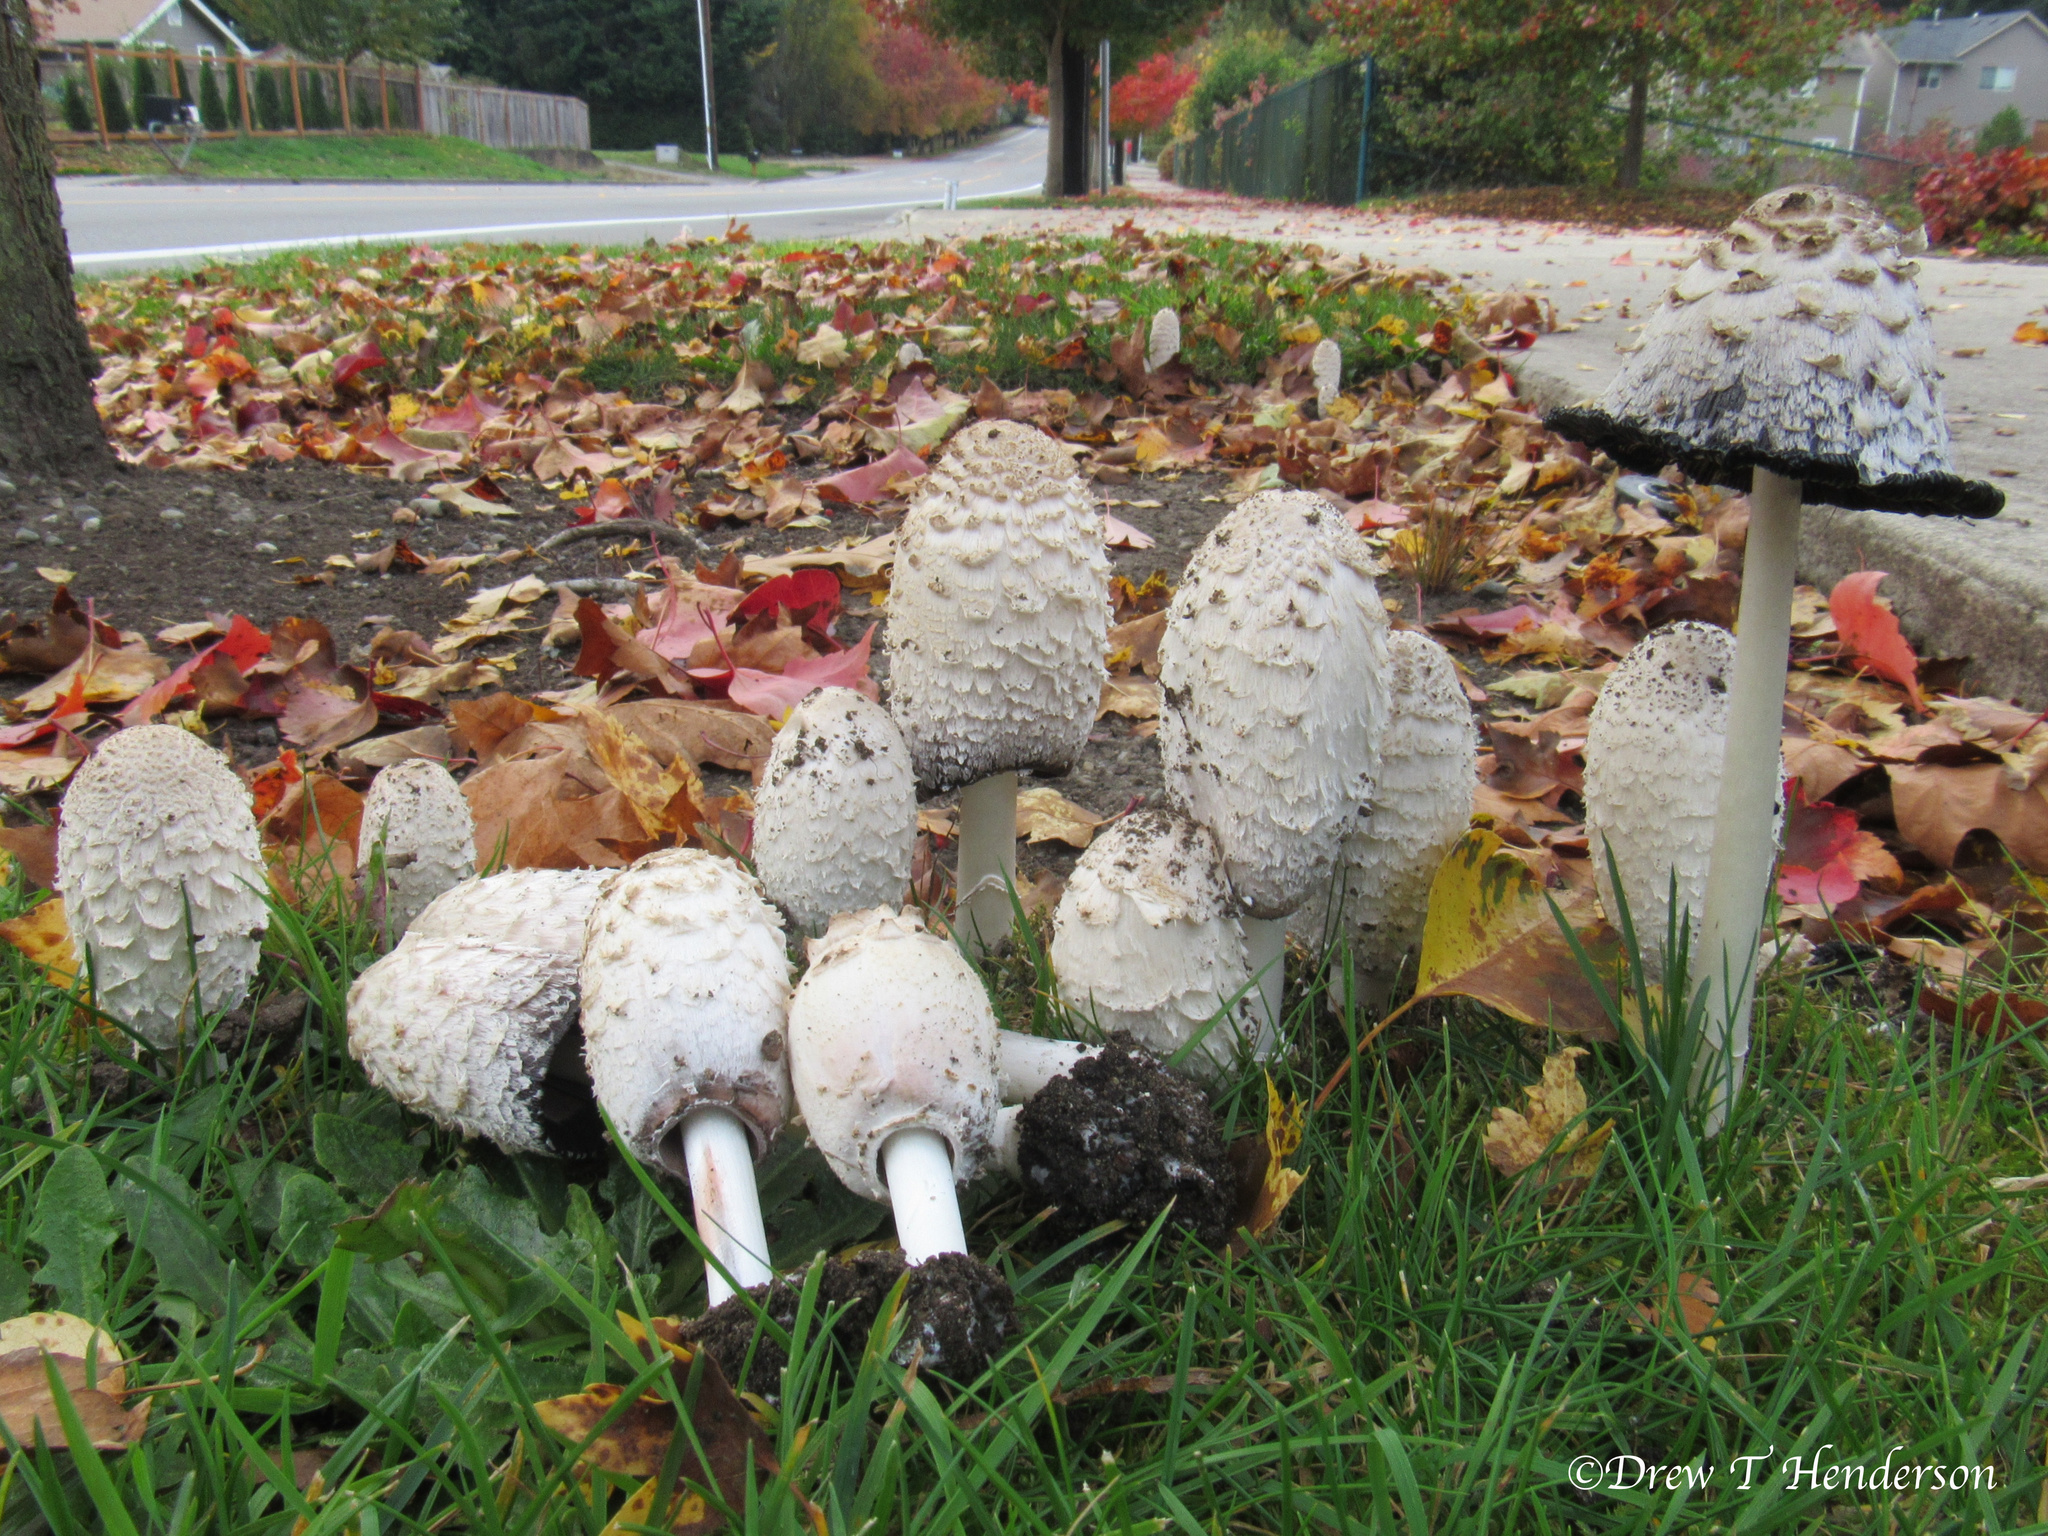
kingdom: Fungi
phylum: Basidiomycota
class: Agaricomycetes
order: Agaricales
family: Agaricaceae
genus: Coprinus
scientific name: Coprinus comatus
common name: Lawyer's wig
